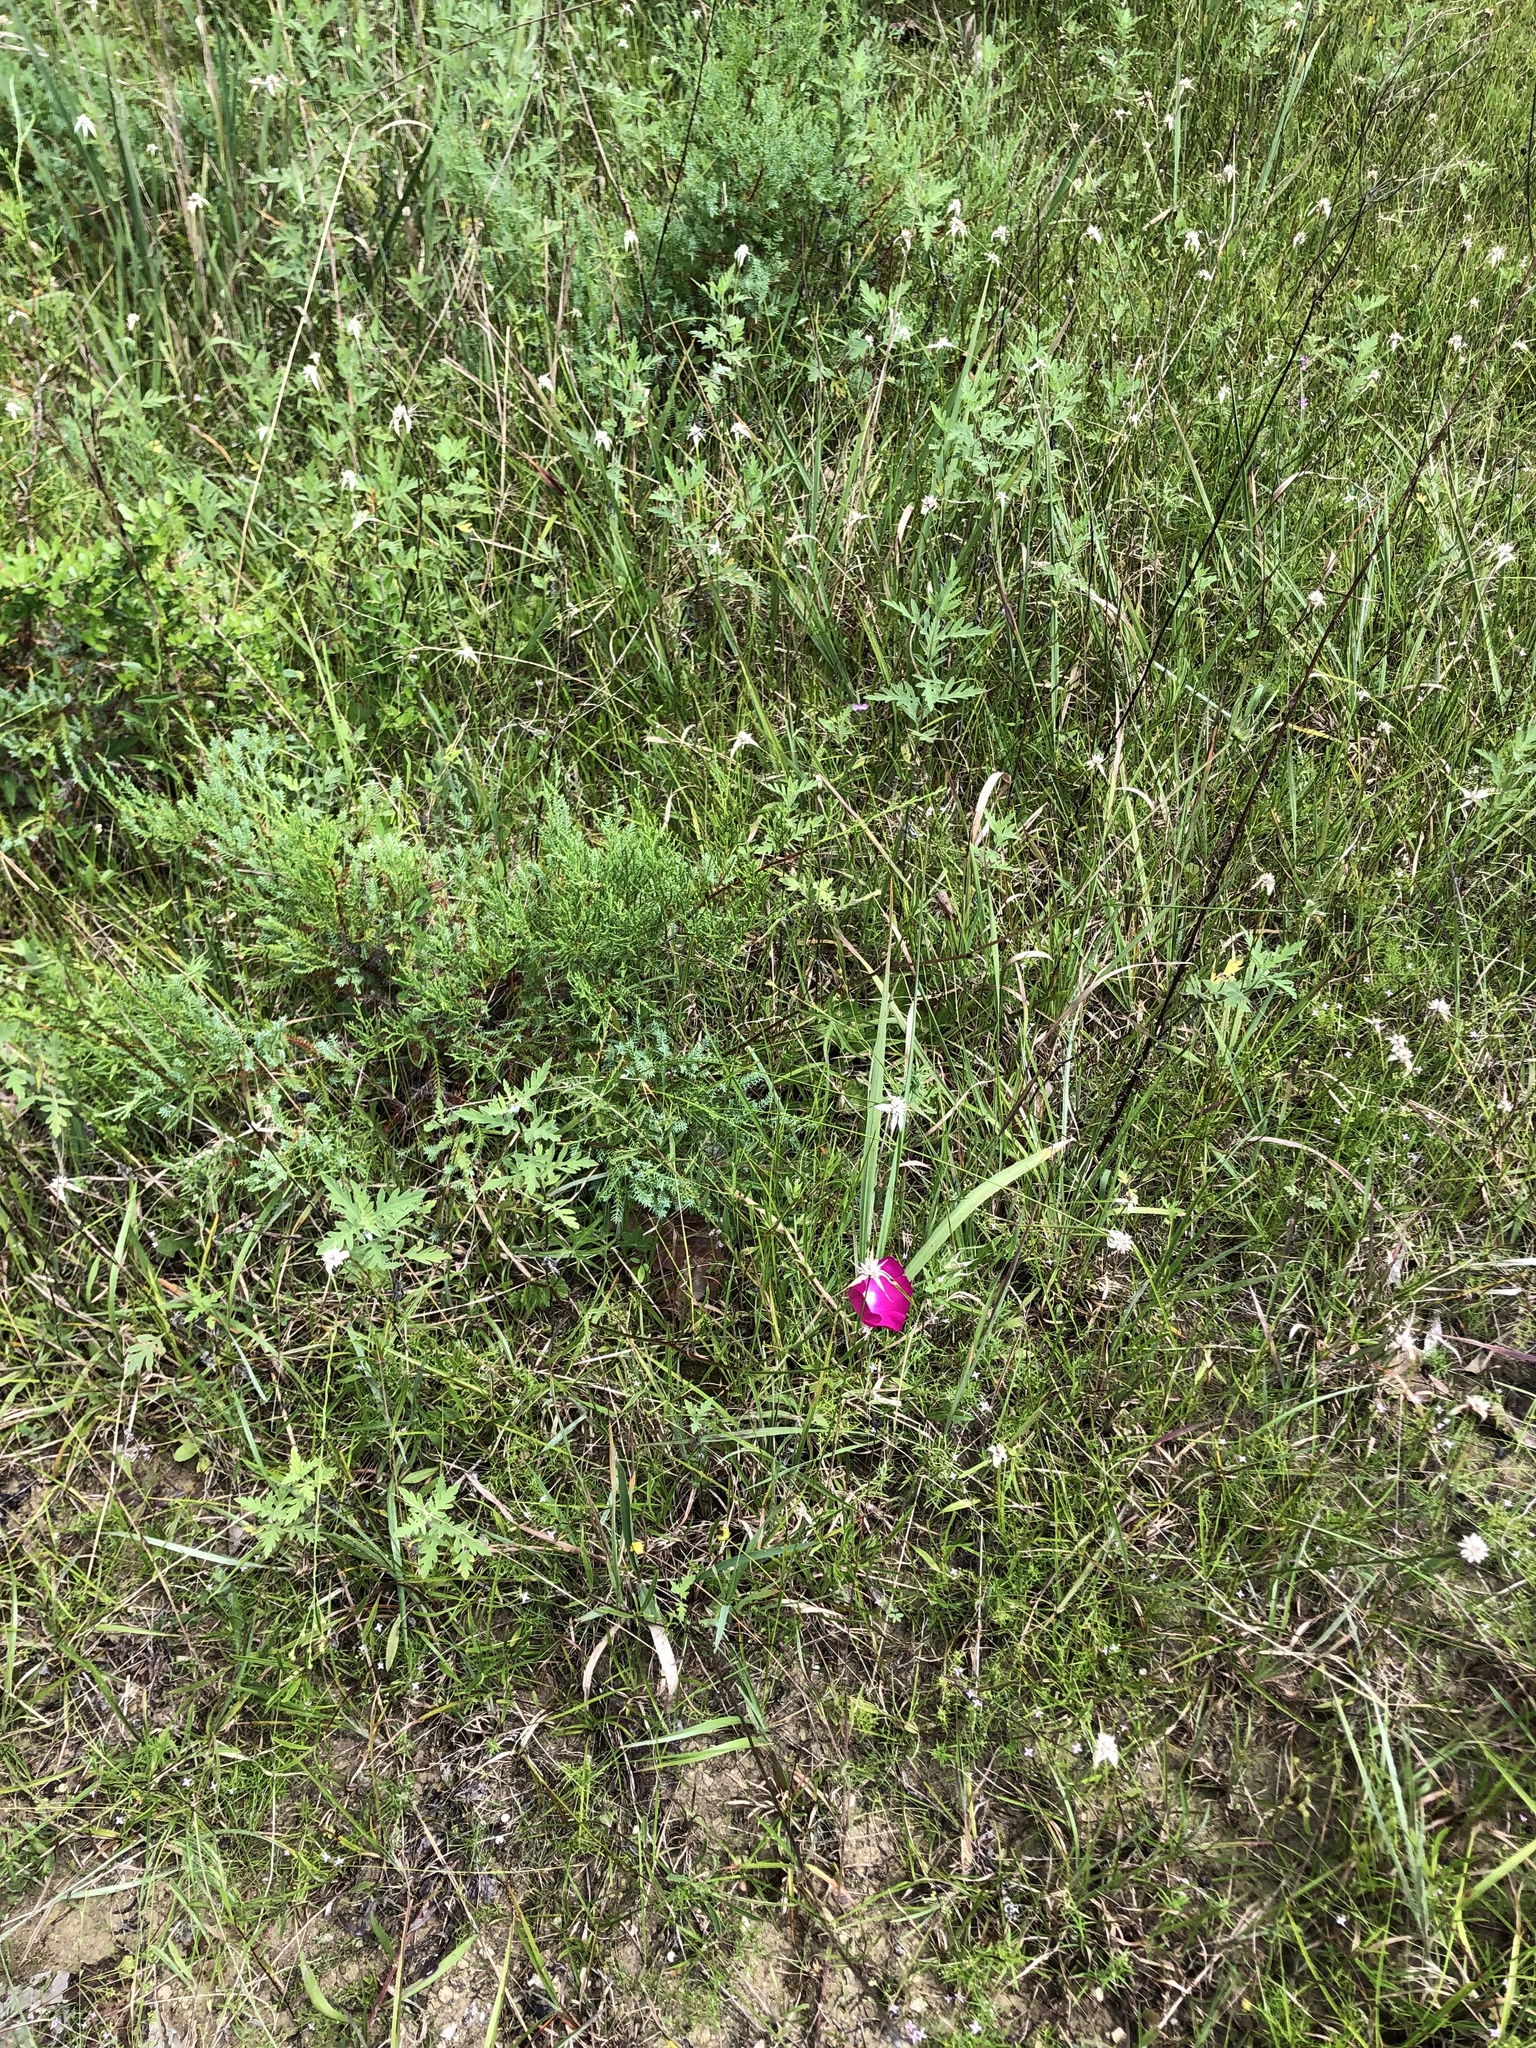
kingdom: Plantae
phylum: Tracheophyta
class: Magnoliopsida
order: Malvales
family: Malvaceae
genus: Callirhoe
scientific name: Callirhoe papaver
